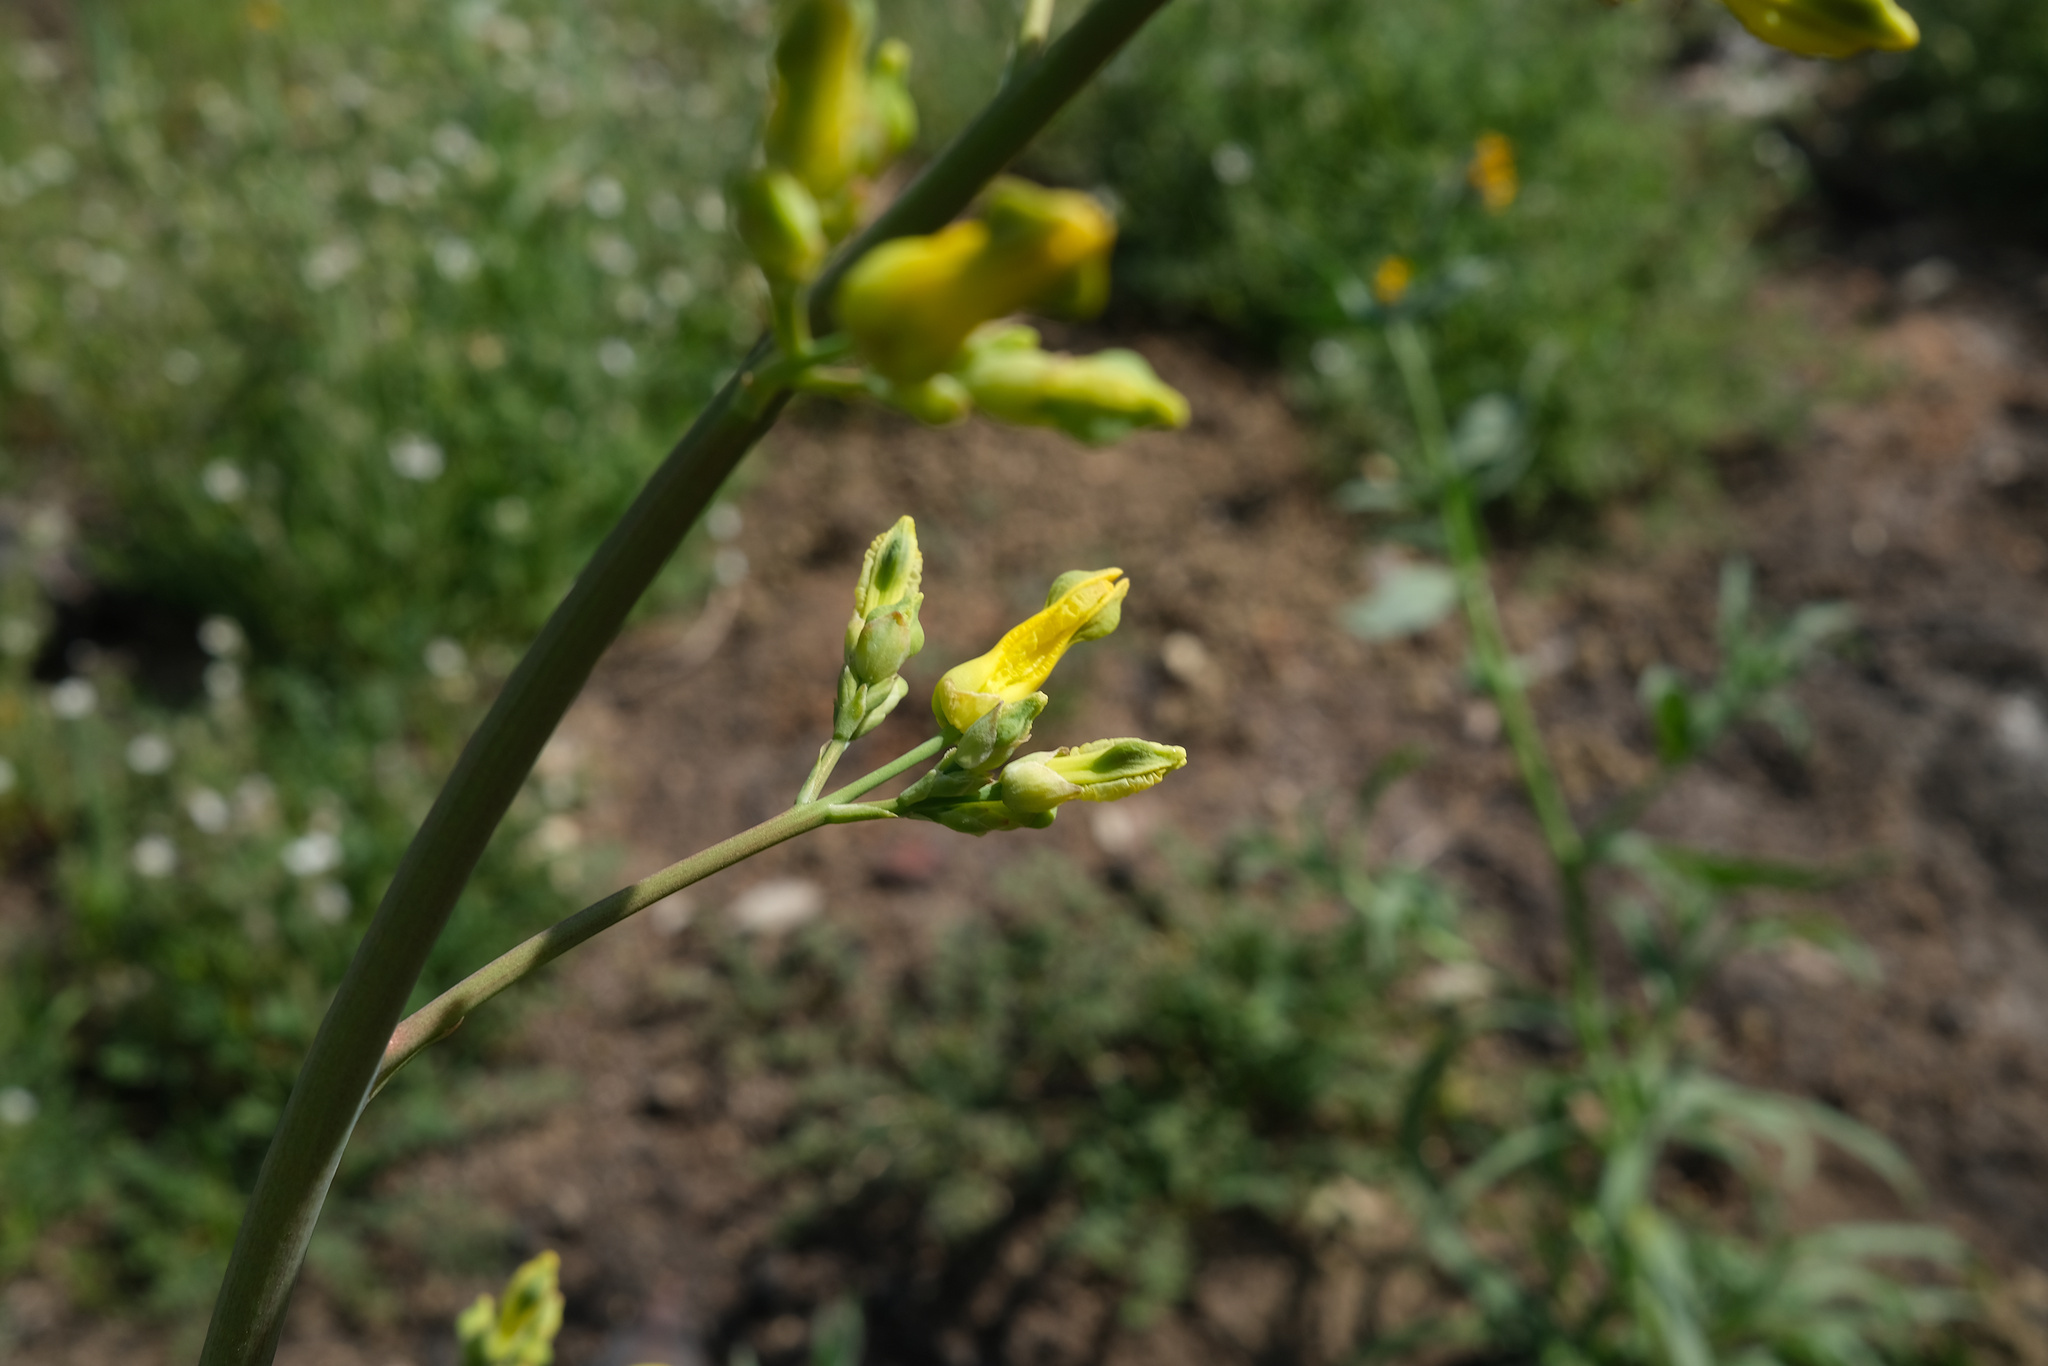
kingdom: Plantae
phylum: Tracheophyta
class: Magnoliopsida
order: Ranunculales
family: Papaveraceae
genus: Ehrendorferia
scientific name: Ehrendorferia chrysantha
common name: Golden eardrops
